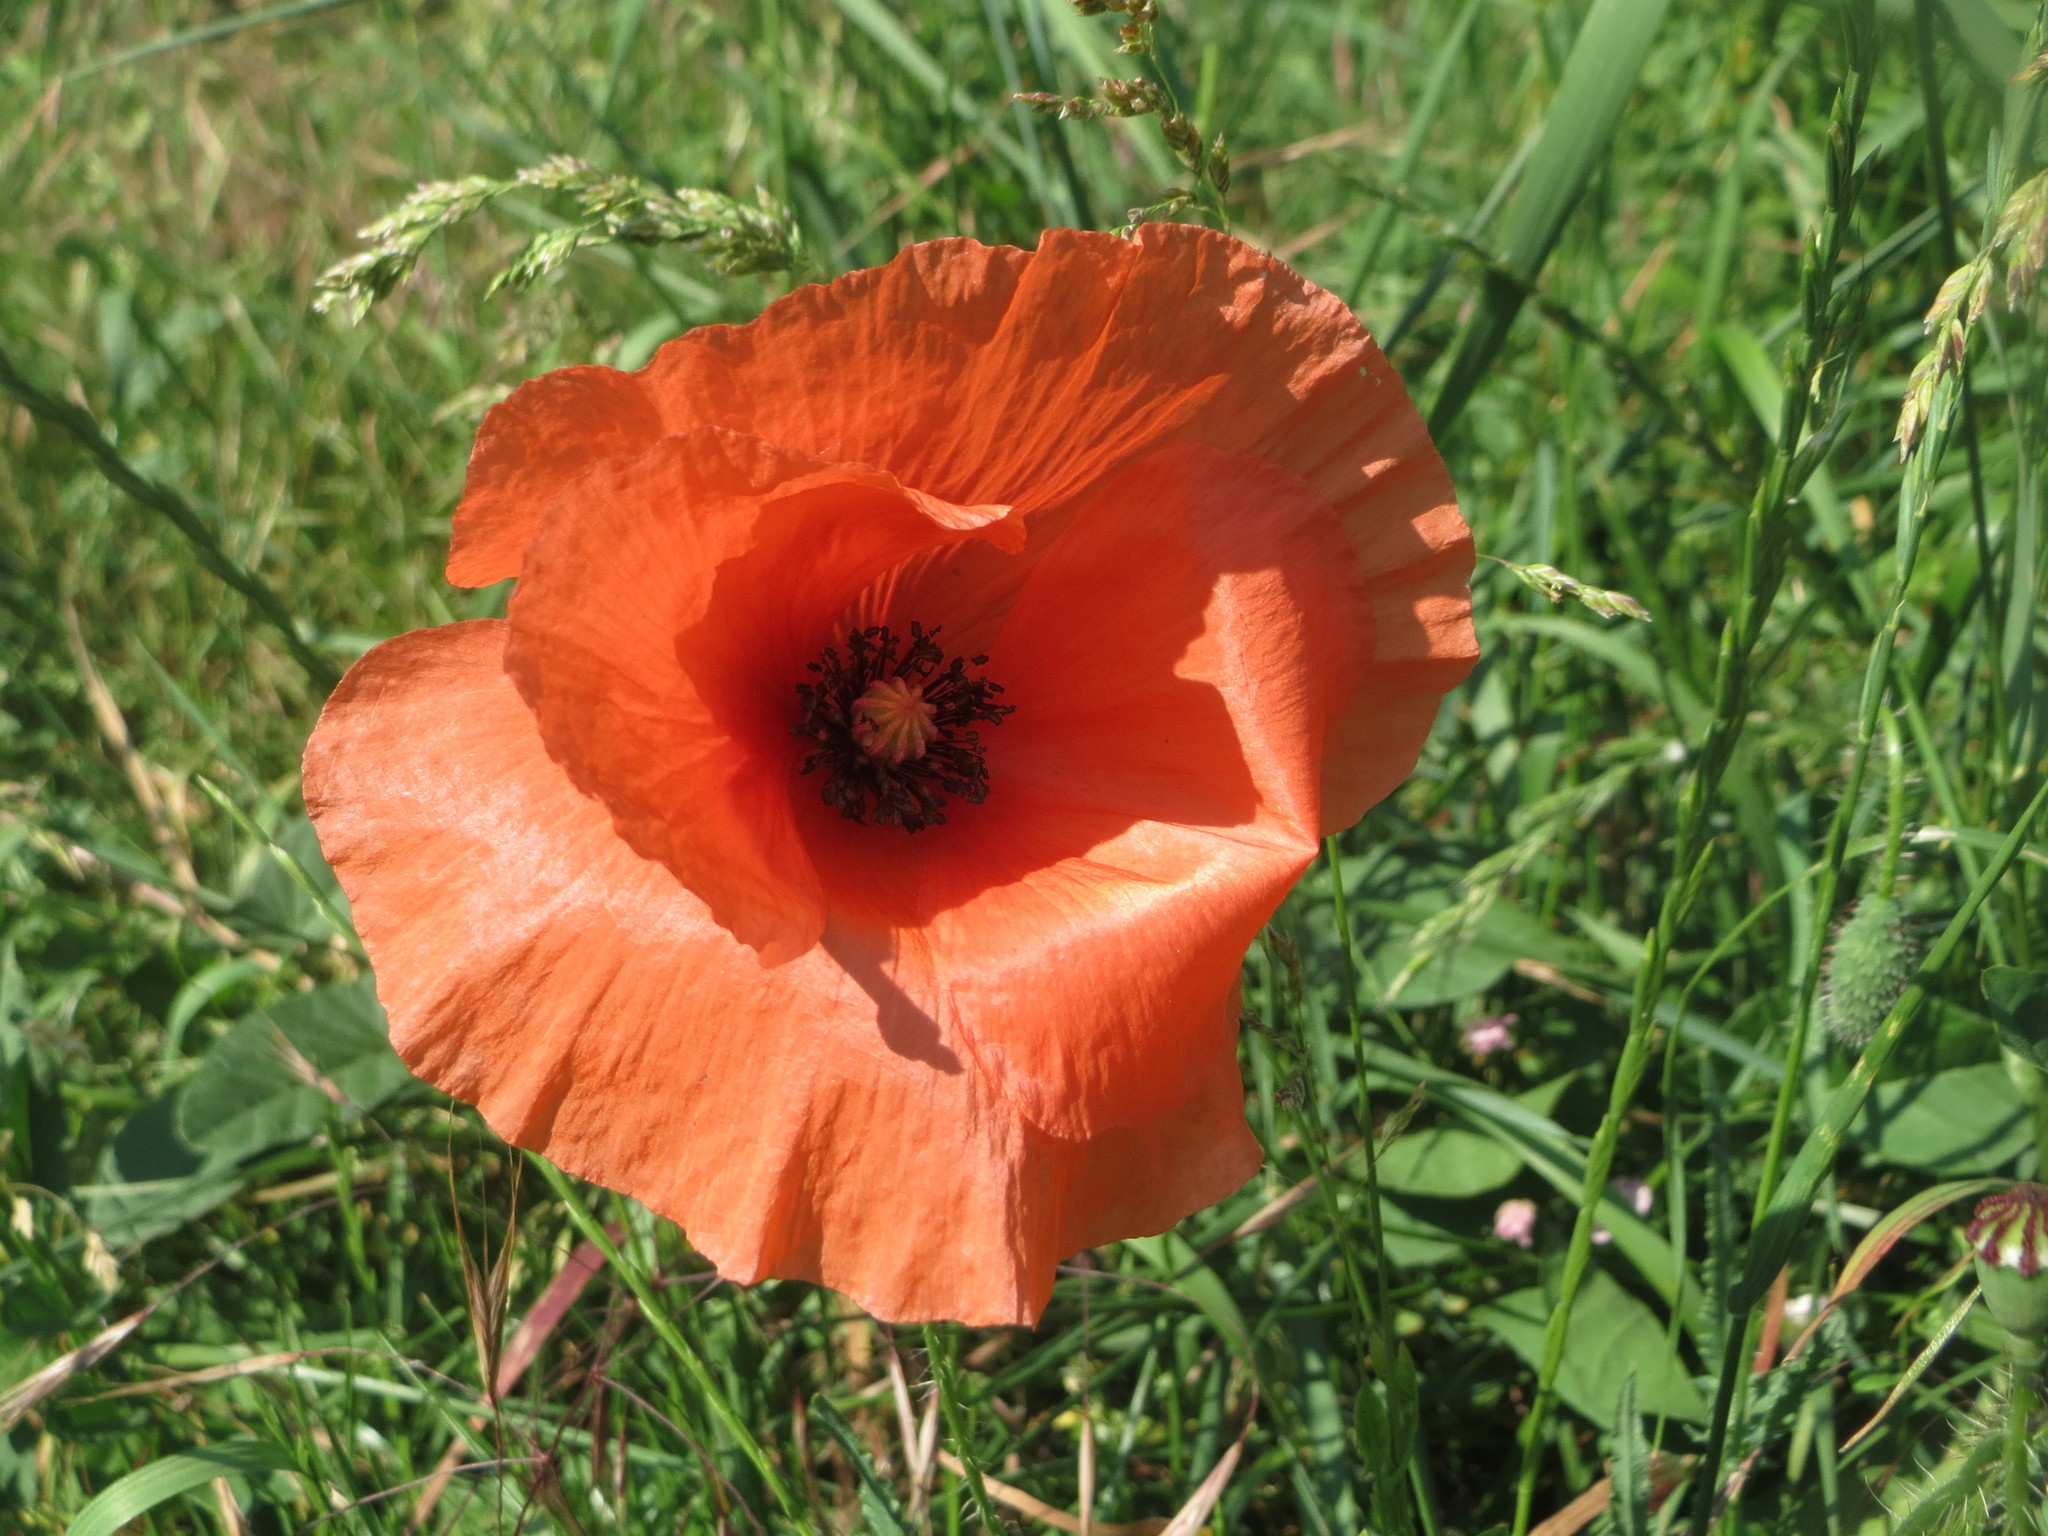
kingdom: Plantae
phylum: Tracheophyta
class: Magnoliopsida
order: Ranunculales
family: Papaveraceae
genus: Papaver
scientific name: Papaver rhoeas
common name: Corn poppy
